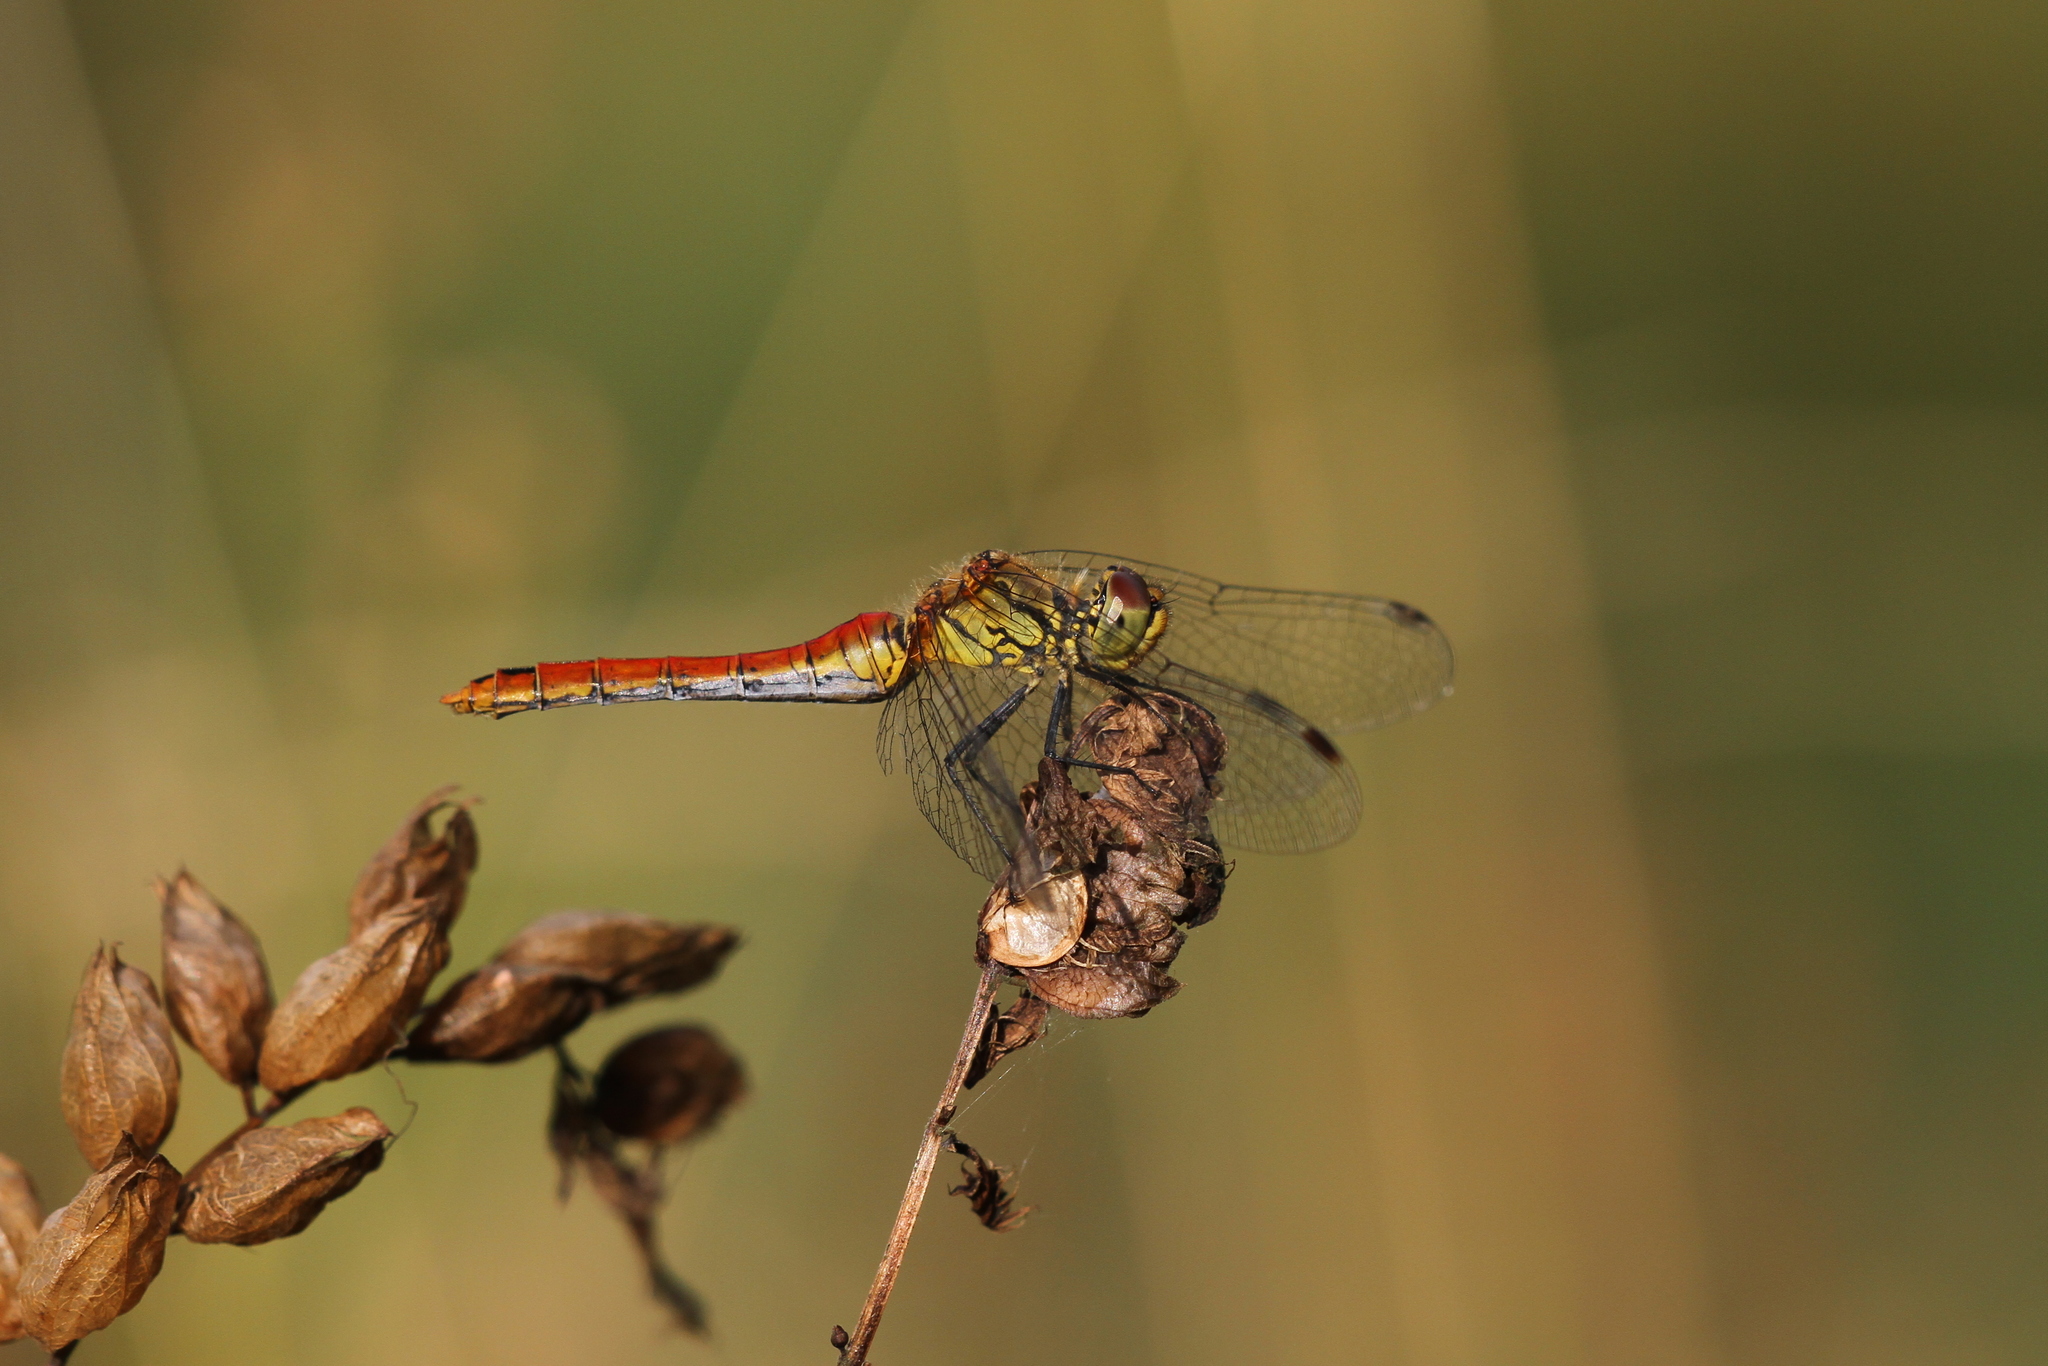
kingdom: Animalia
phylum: Arthropoda
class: Insecta
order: Odonata
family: Libellulidae
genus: Sympetrum
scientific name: Sympetrum sanguineum
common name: Ruddy darter
